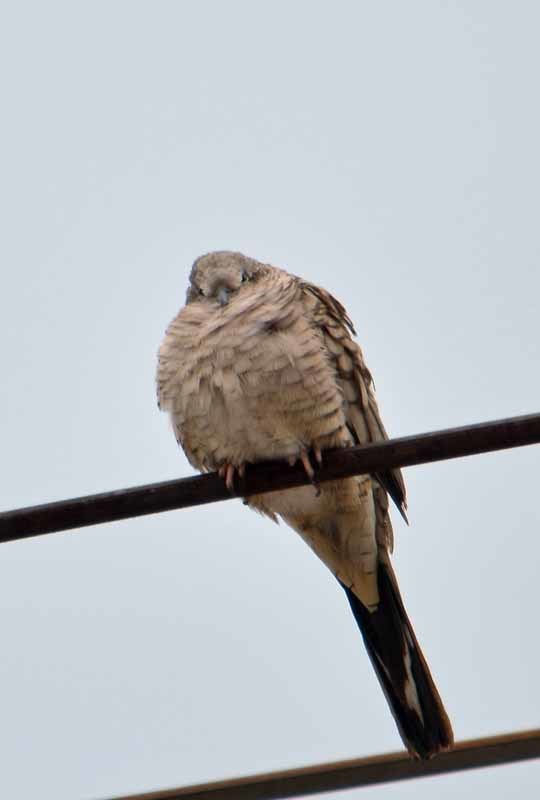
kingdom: Animalia
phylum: Chordata
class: Aves
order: Columbiformes
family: Columbidae
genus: Columbina
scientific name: Columbina inca
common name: Inca dove
